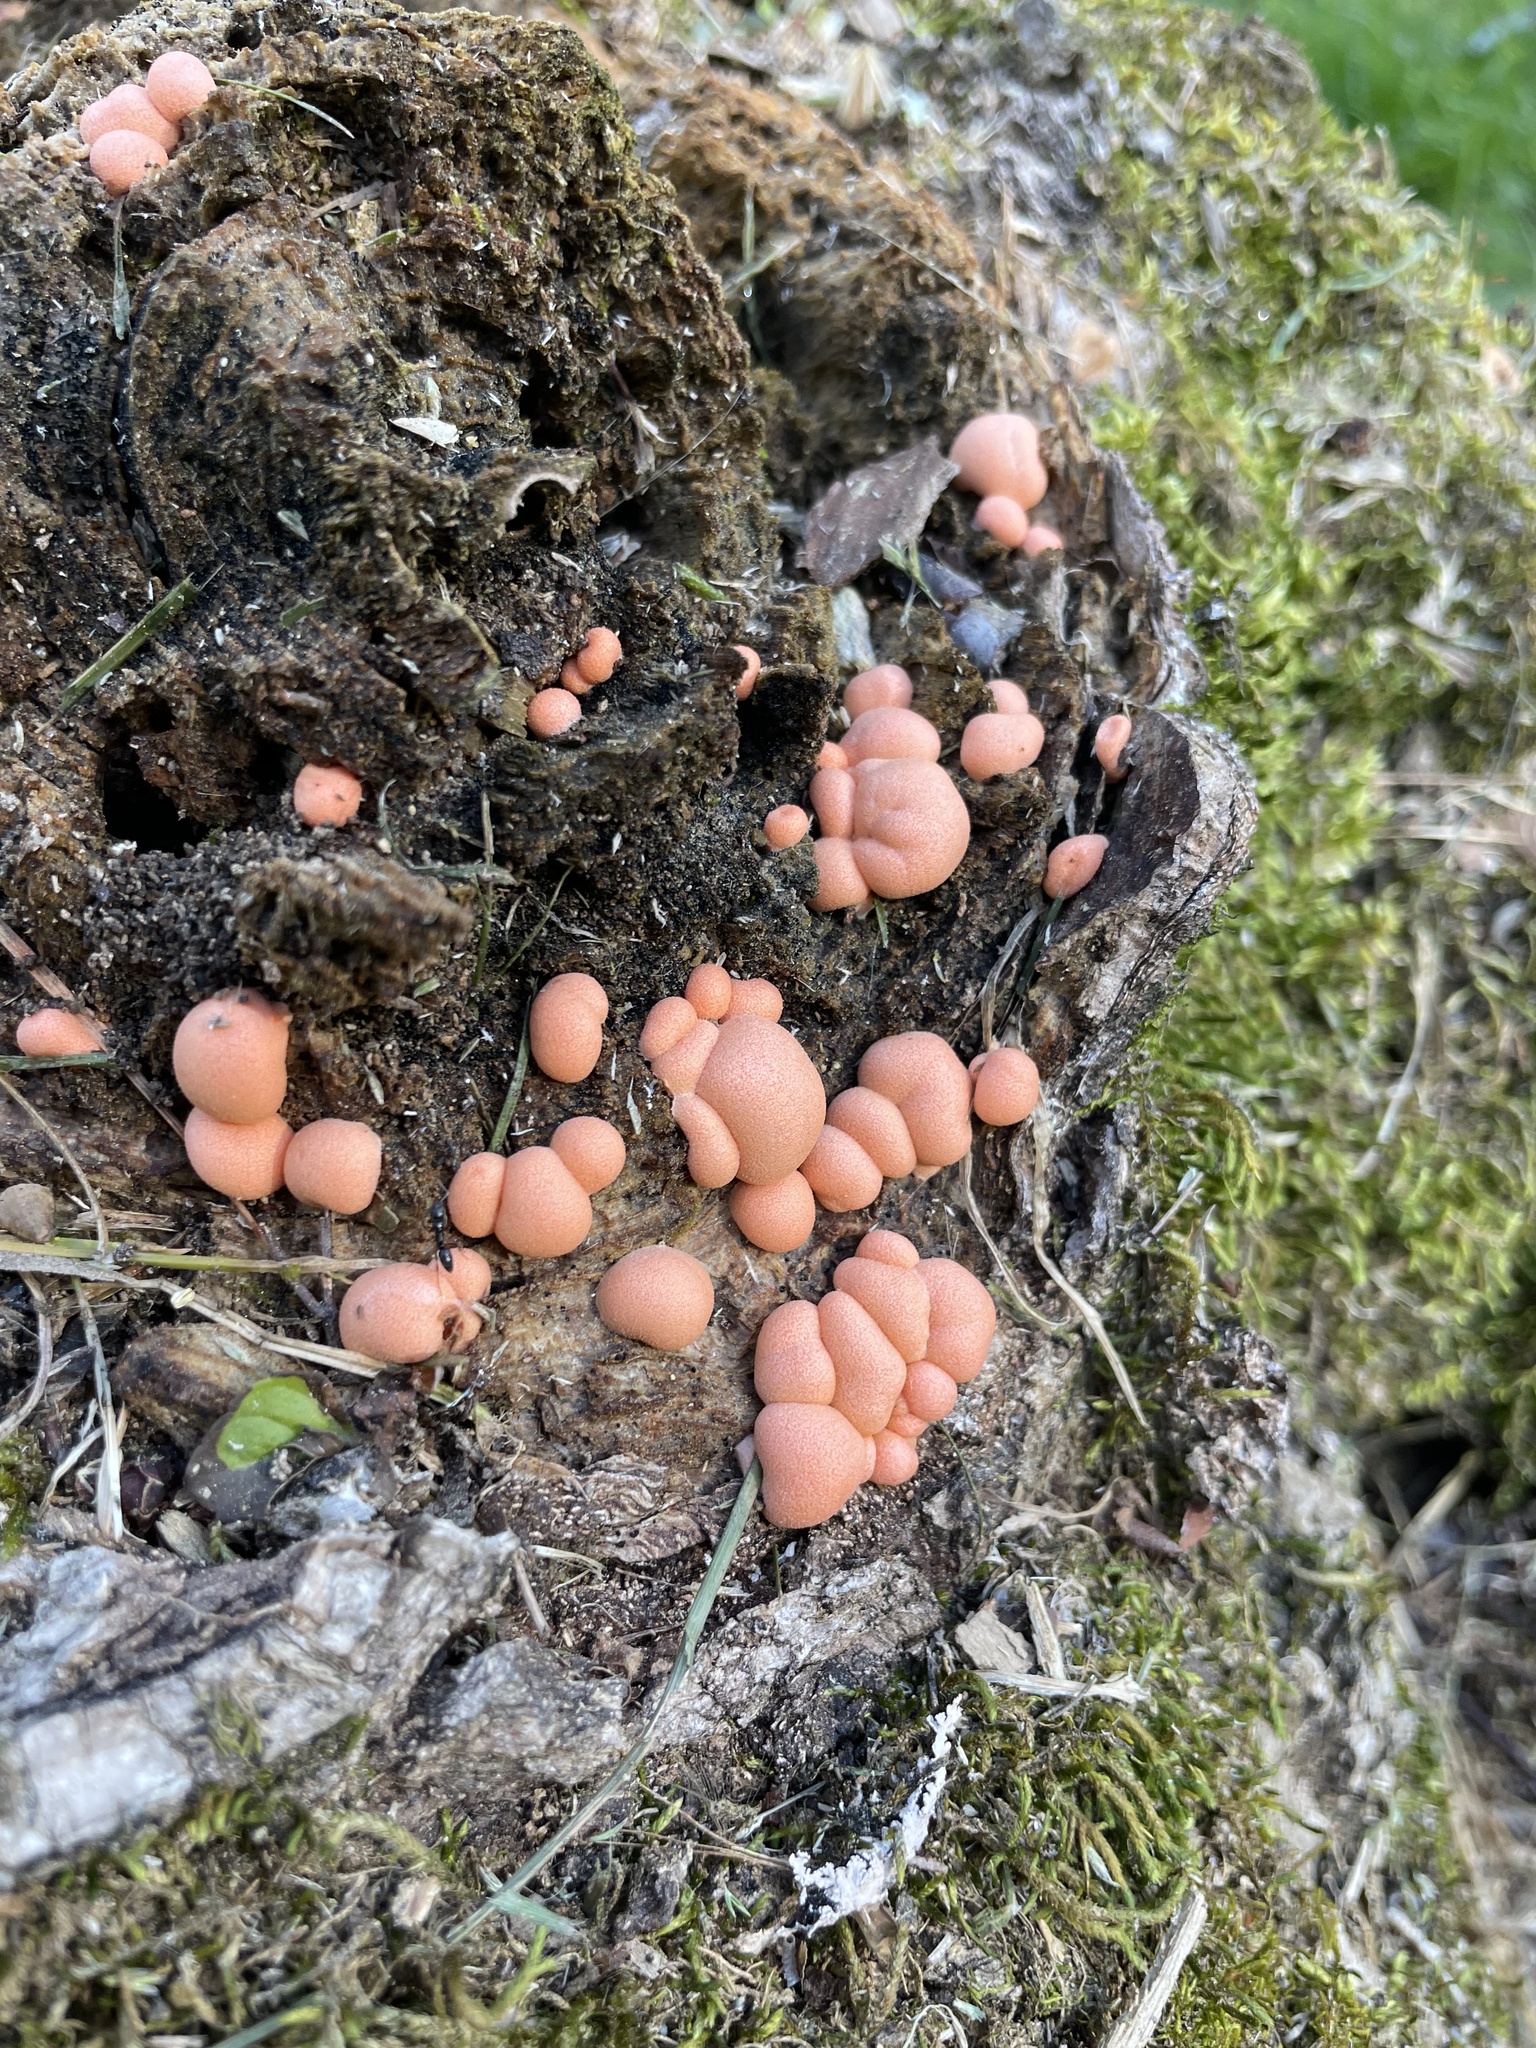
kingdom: Protozoa
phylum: Mycetozoa
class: Myxomycetes
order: Cribrariales
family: Tubiferaceae
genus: Lycogala
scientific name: Lycogala epidendrum
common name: Wolf's milk
